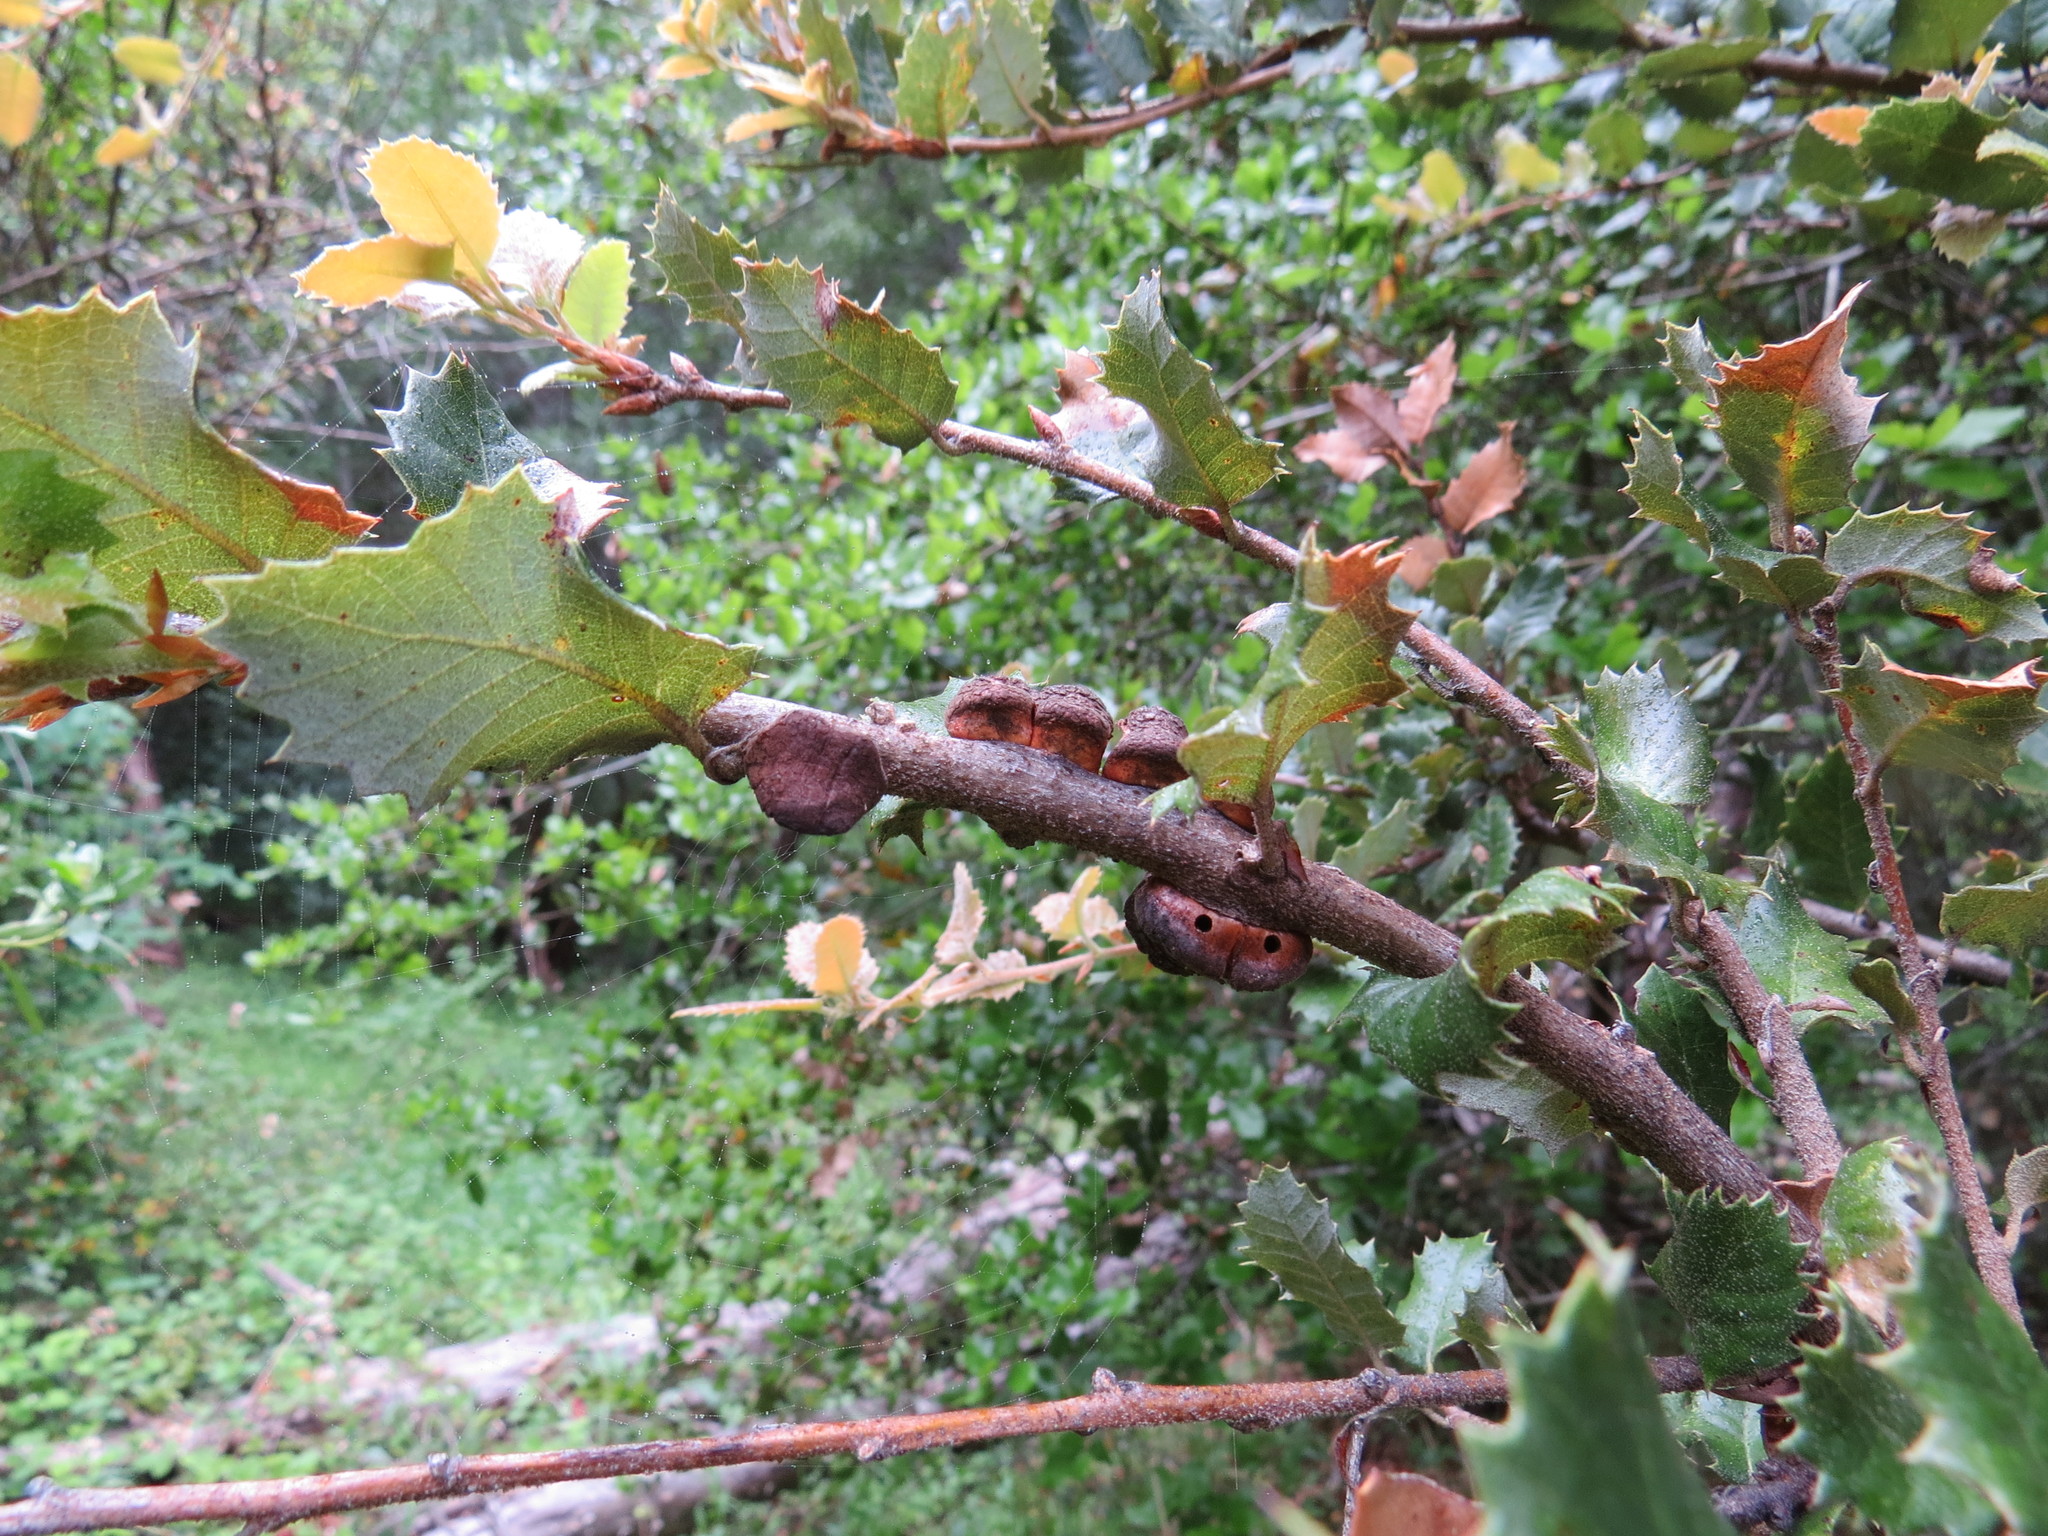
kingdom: Animalia
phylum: Arthropoda
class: Insecta
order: Hymenoptera
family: Cynipidae
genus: Disholandricus
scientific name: Disholandricus
